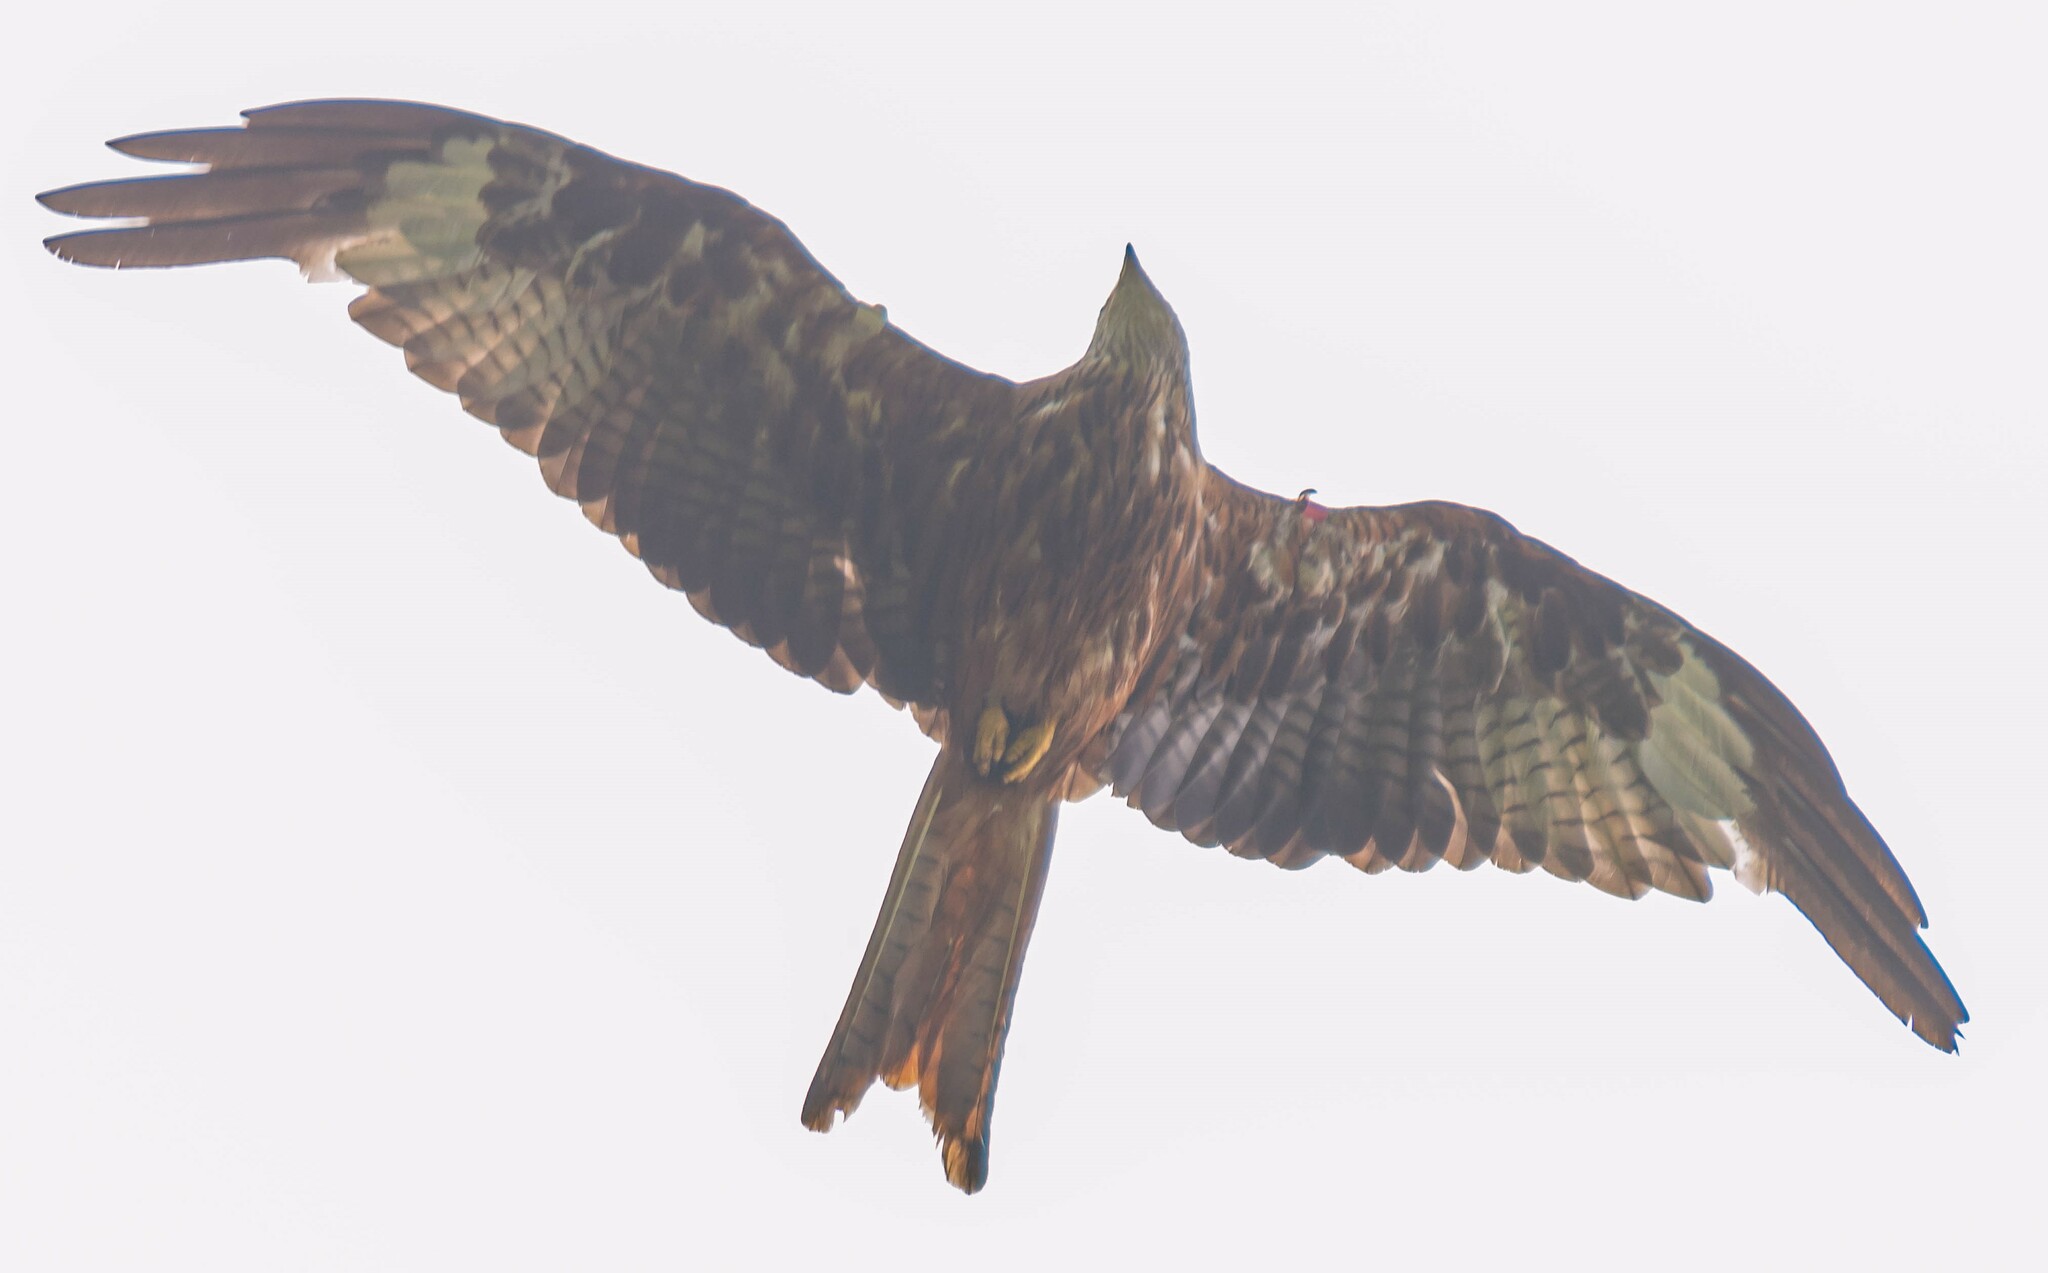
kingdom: Animalia
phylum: Chordata
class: Aves
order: Accipitriformes
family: Accipitridae
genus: Milvus
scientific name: Milvus milvus
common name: Red kite
